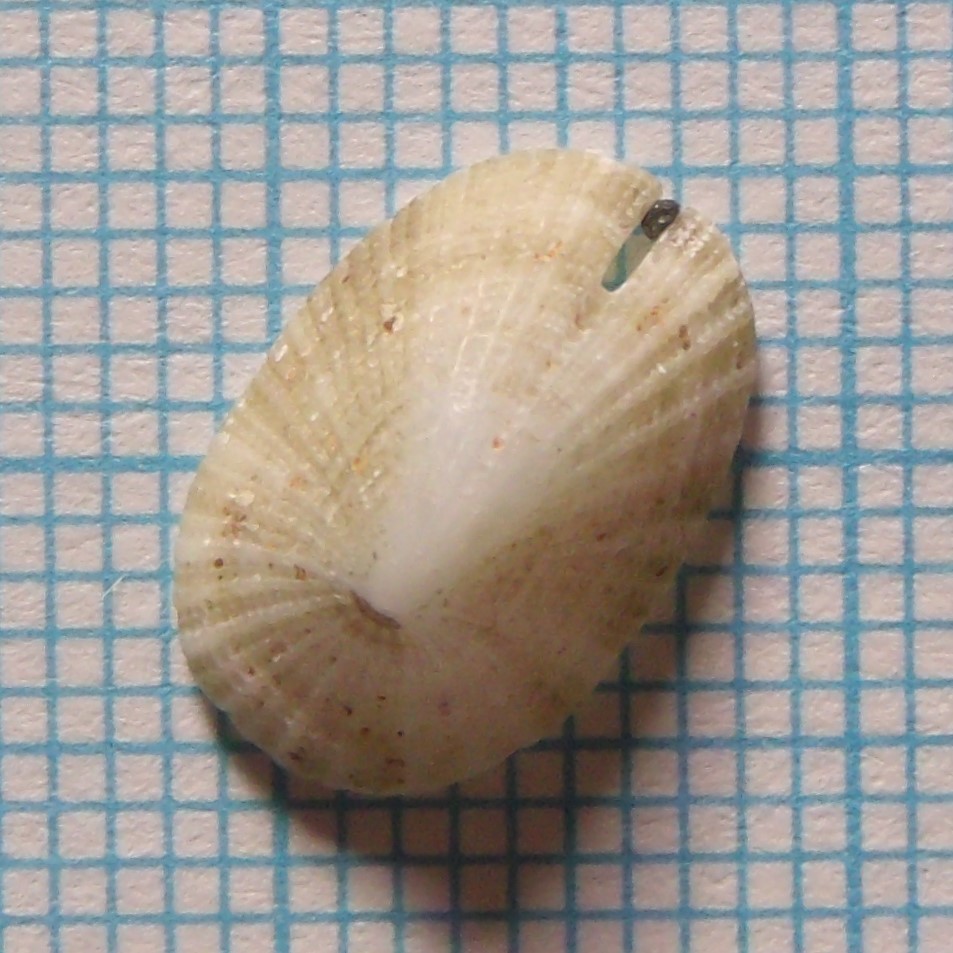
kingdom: Animalia
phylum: Mollusca
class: Gastropoda
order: Lepetellida
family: Fissurellidae
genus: Emarginula
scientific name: Emarginula striatula
